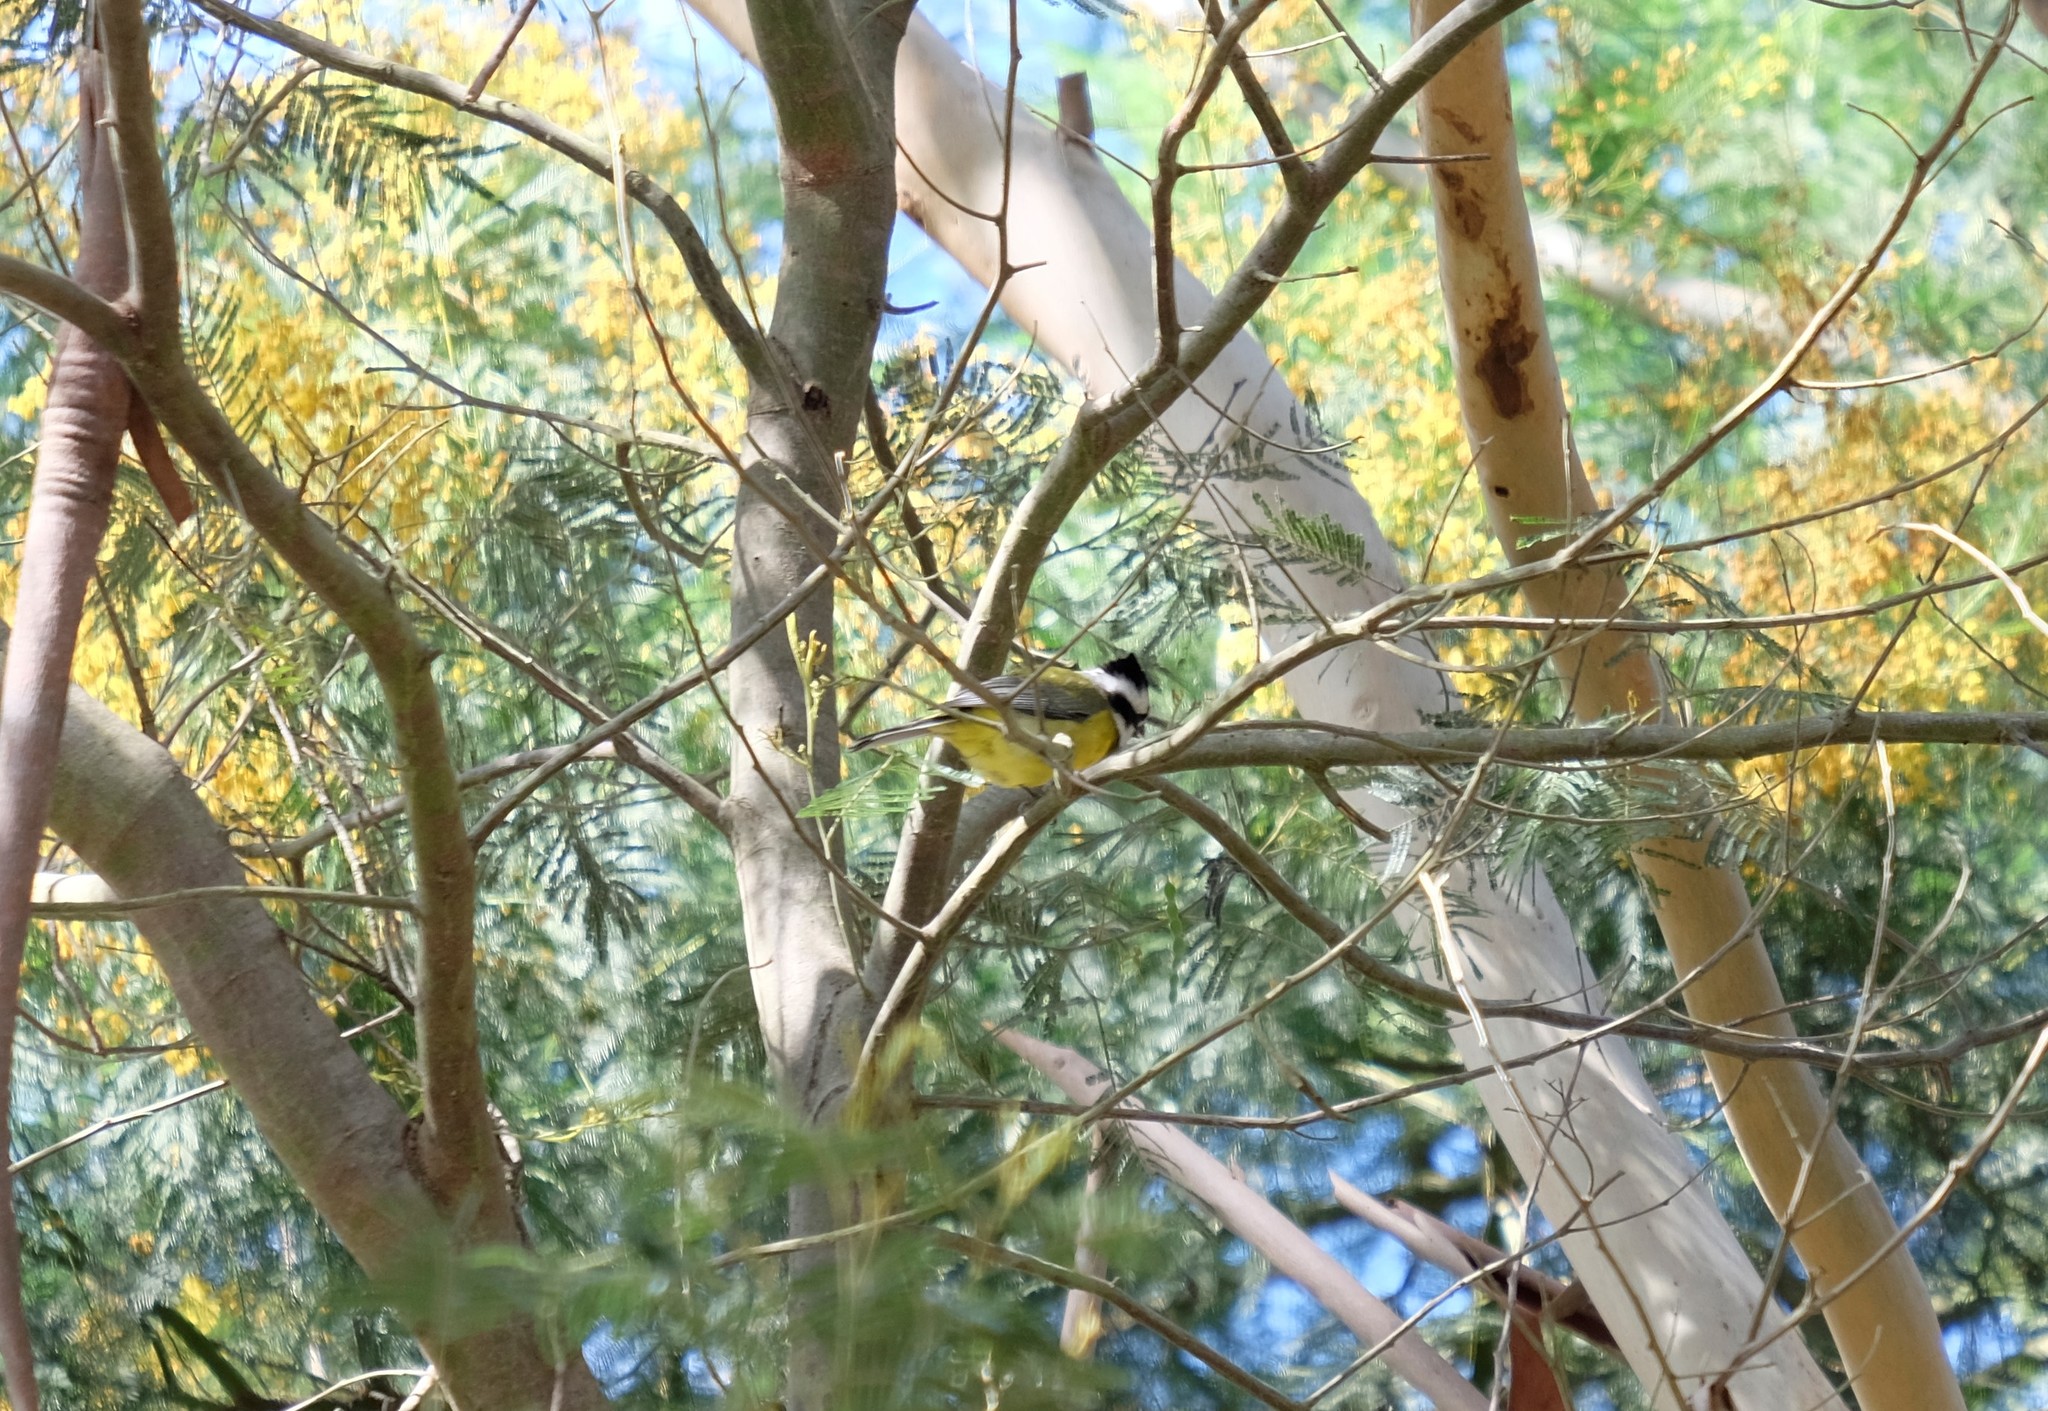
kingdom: Animalia
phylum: Chordata
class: Aves
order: Passeriformes
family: Pachycephalidae
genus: Falcunculus
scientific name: Falcunculus frontatus
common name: Crested shriketit
